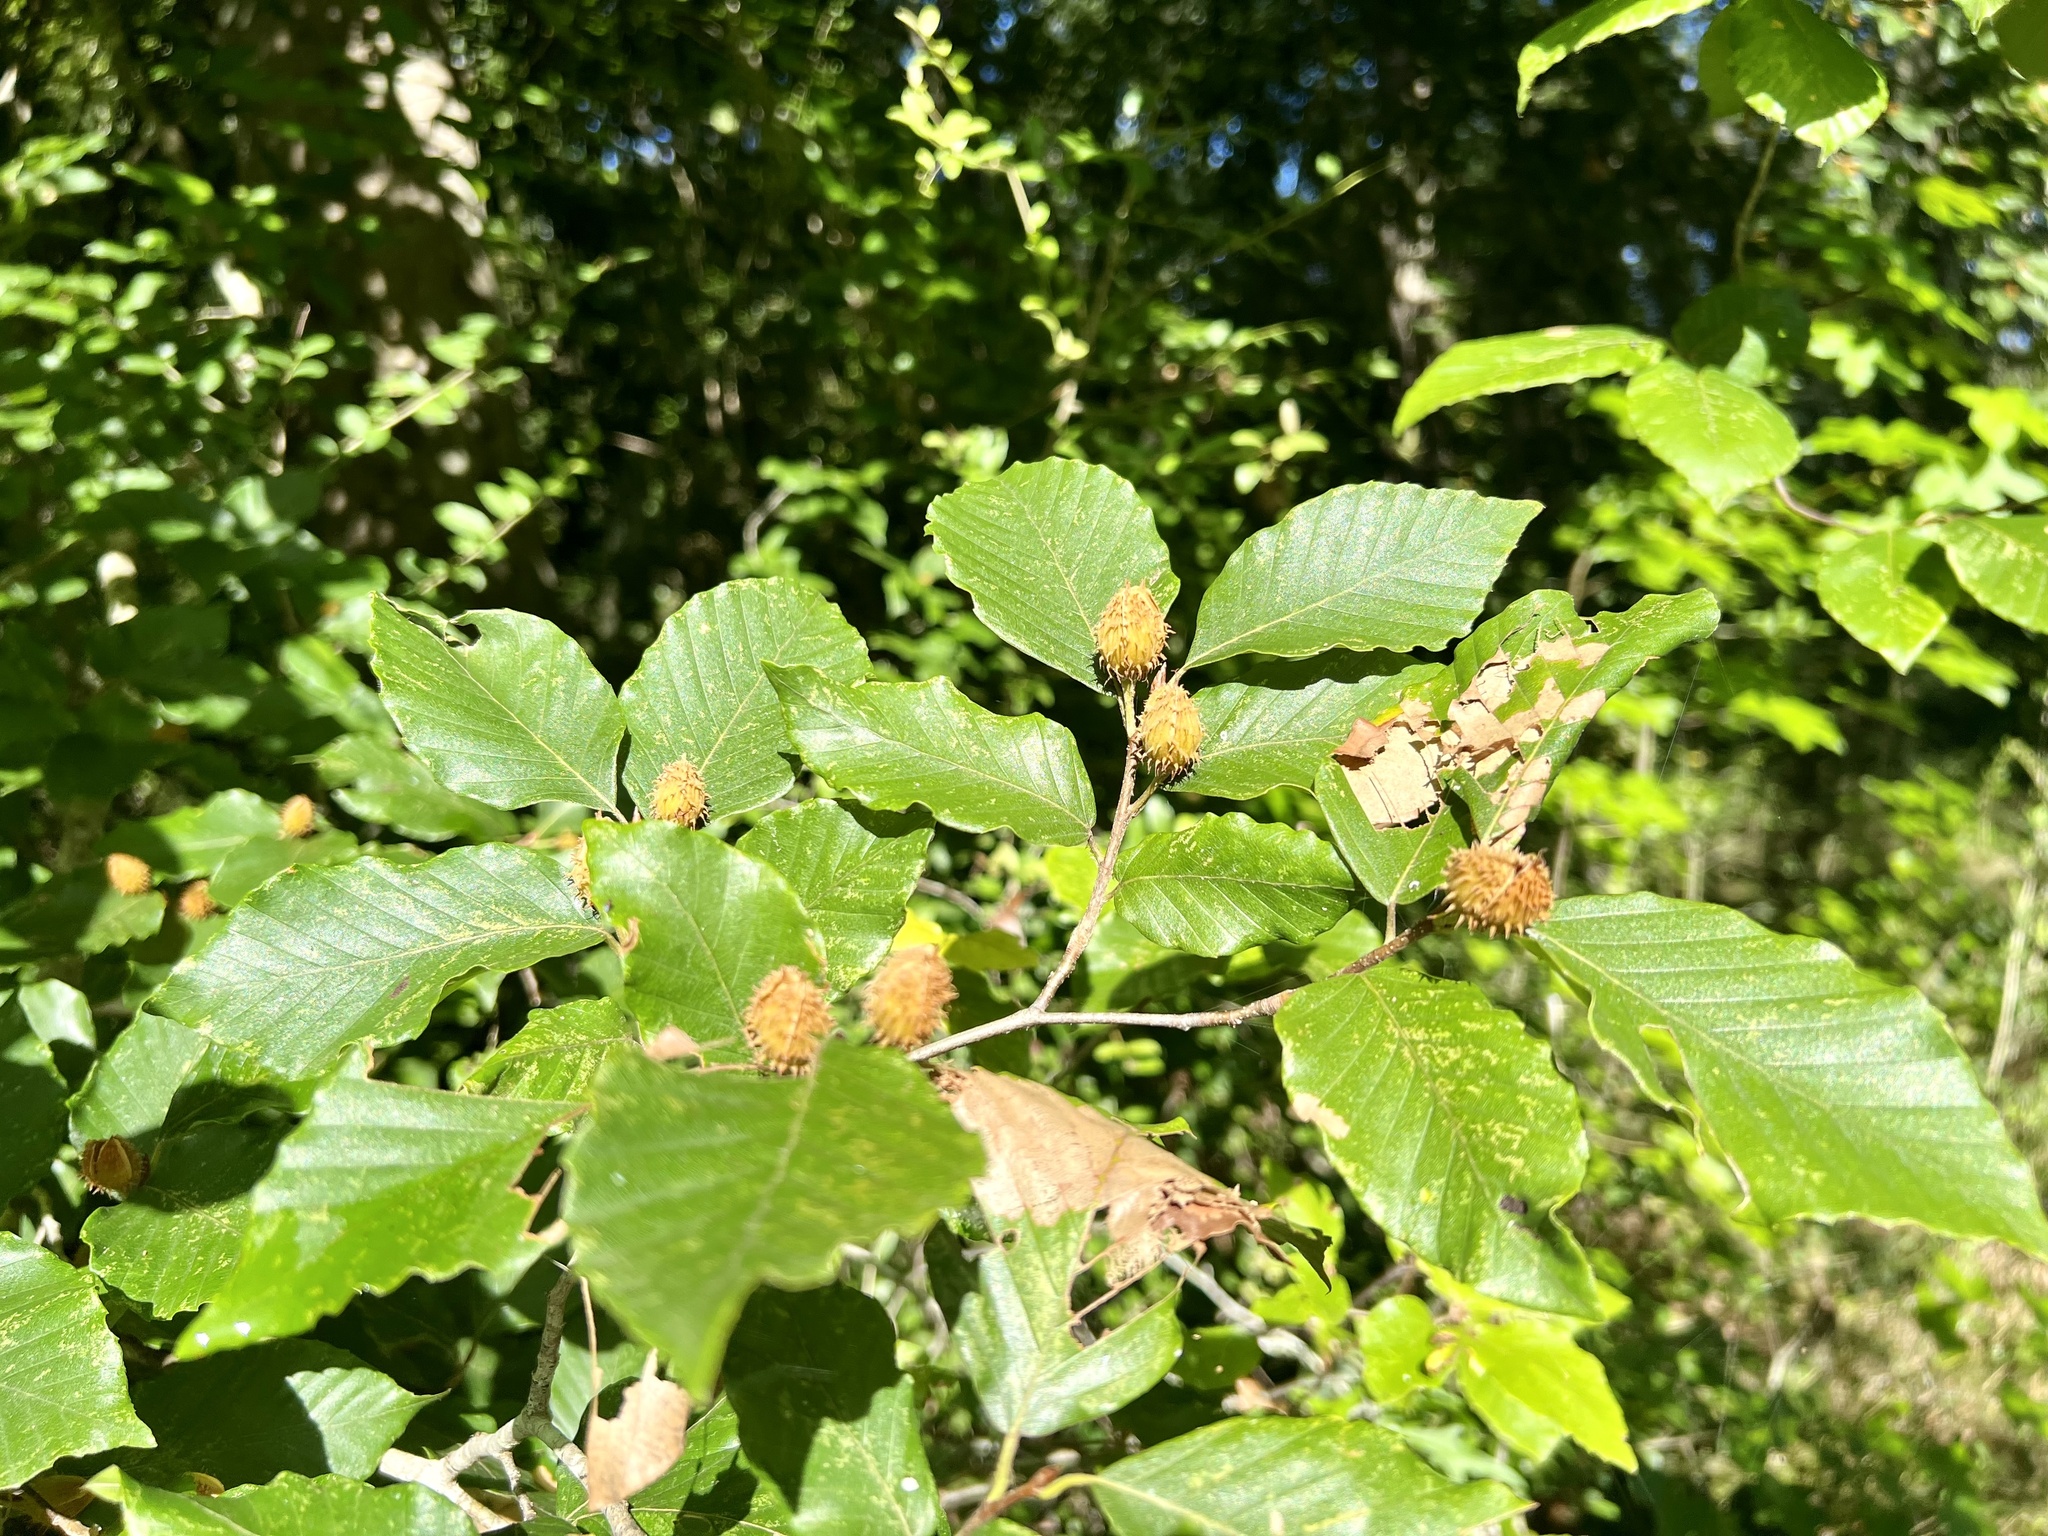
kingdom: Plantae
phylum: Tracheophyta
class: Magnoliopsida
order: Fagales
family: Fagaceae
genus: Fagus
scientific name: Fagus grandifolia
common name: American beech
